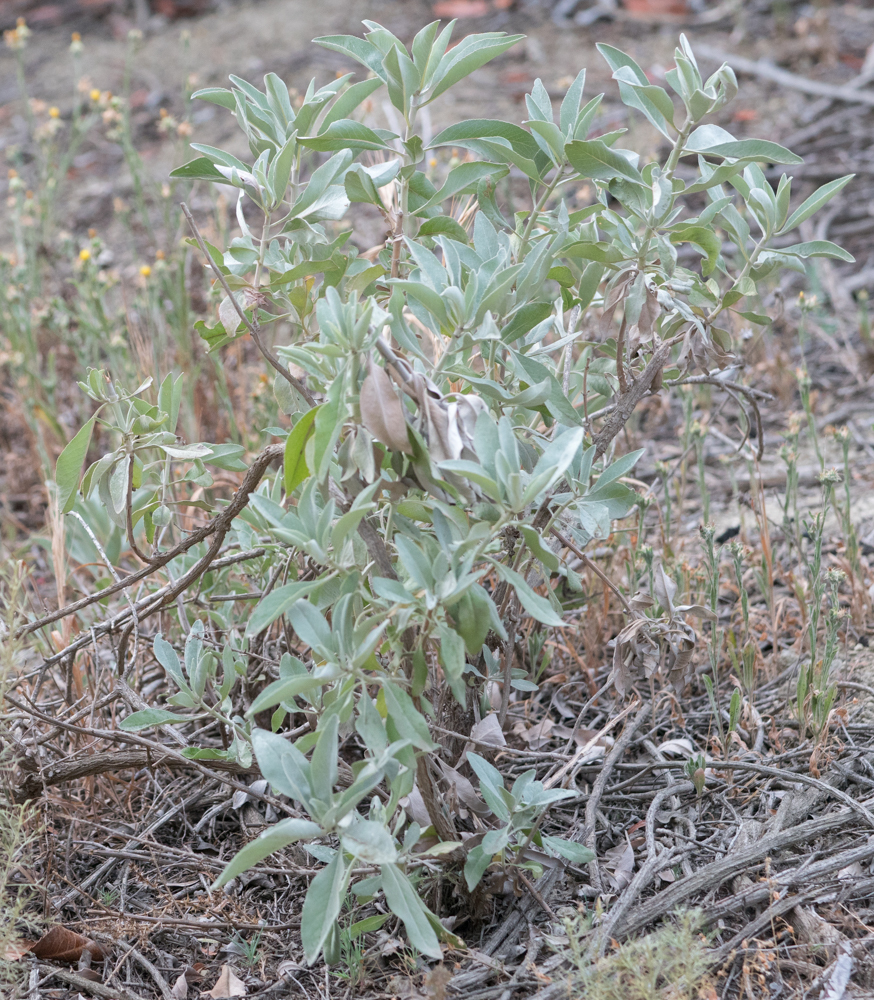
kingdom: Plantae
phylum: Tracheophyta
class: Magnoliopsida
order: Lamiales
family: Lamiaceae
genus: Salvia
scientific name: Salvia apiana
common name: White sage
